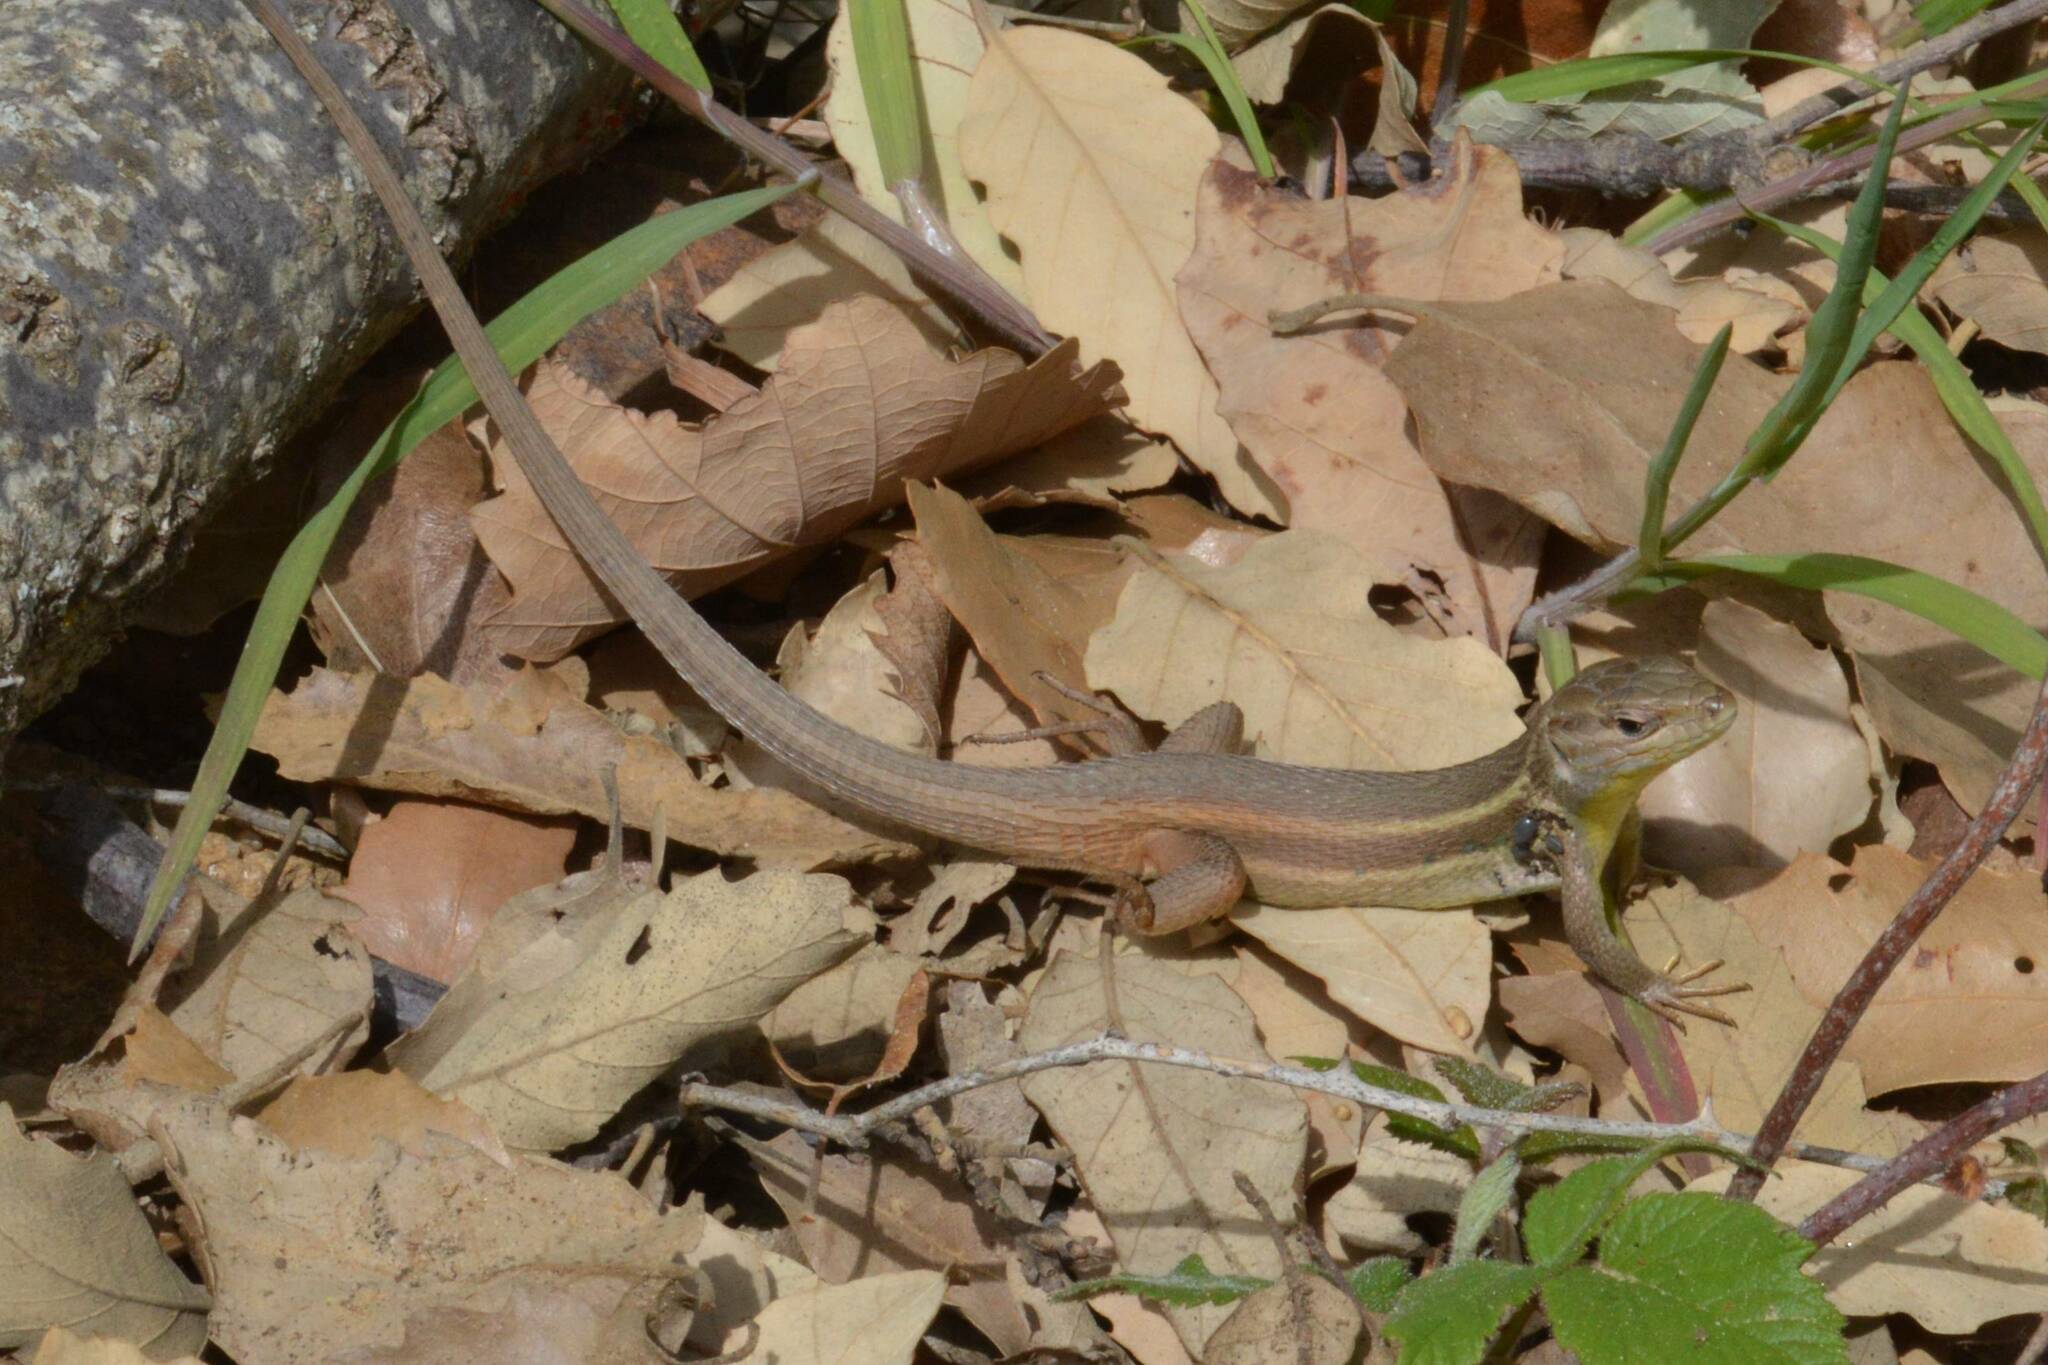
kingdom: Animalia
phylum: Chordata
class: Squamata
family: Lacertidae
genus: Psammodromus
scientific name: Psammodromus algirus
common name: Algerian psammodromus
